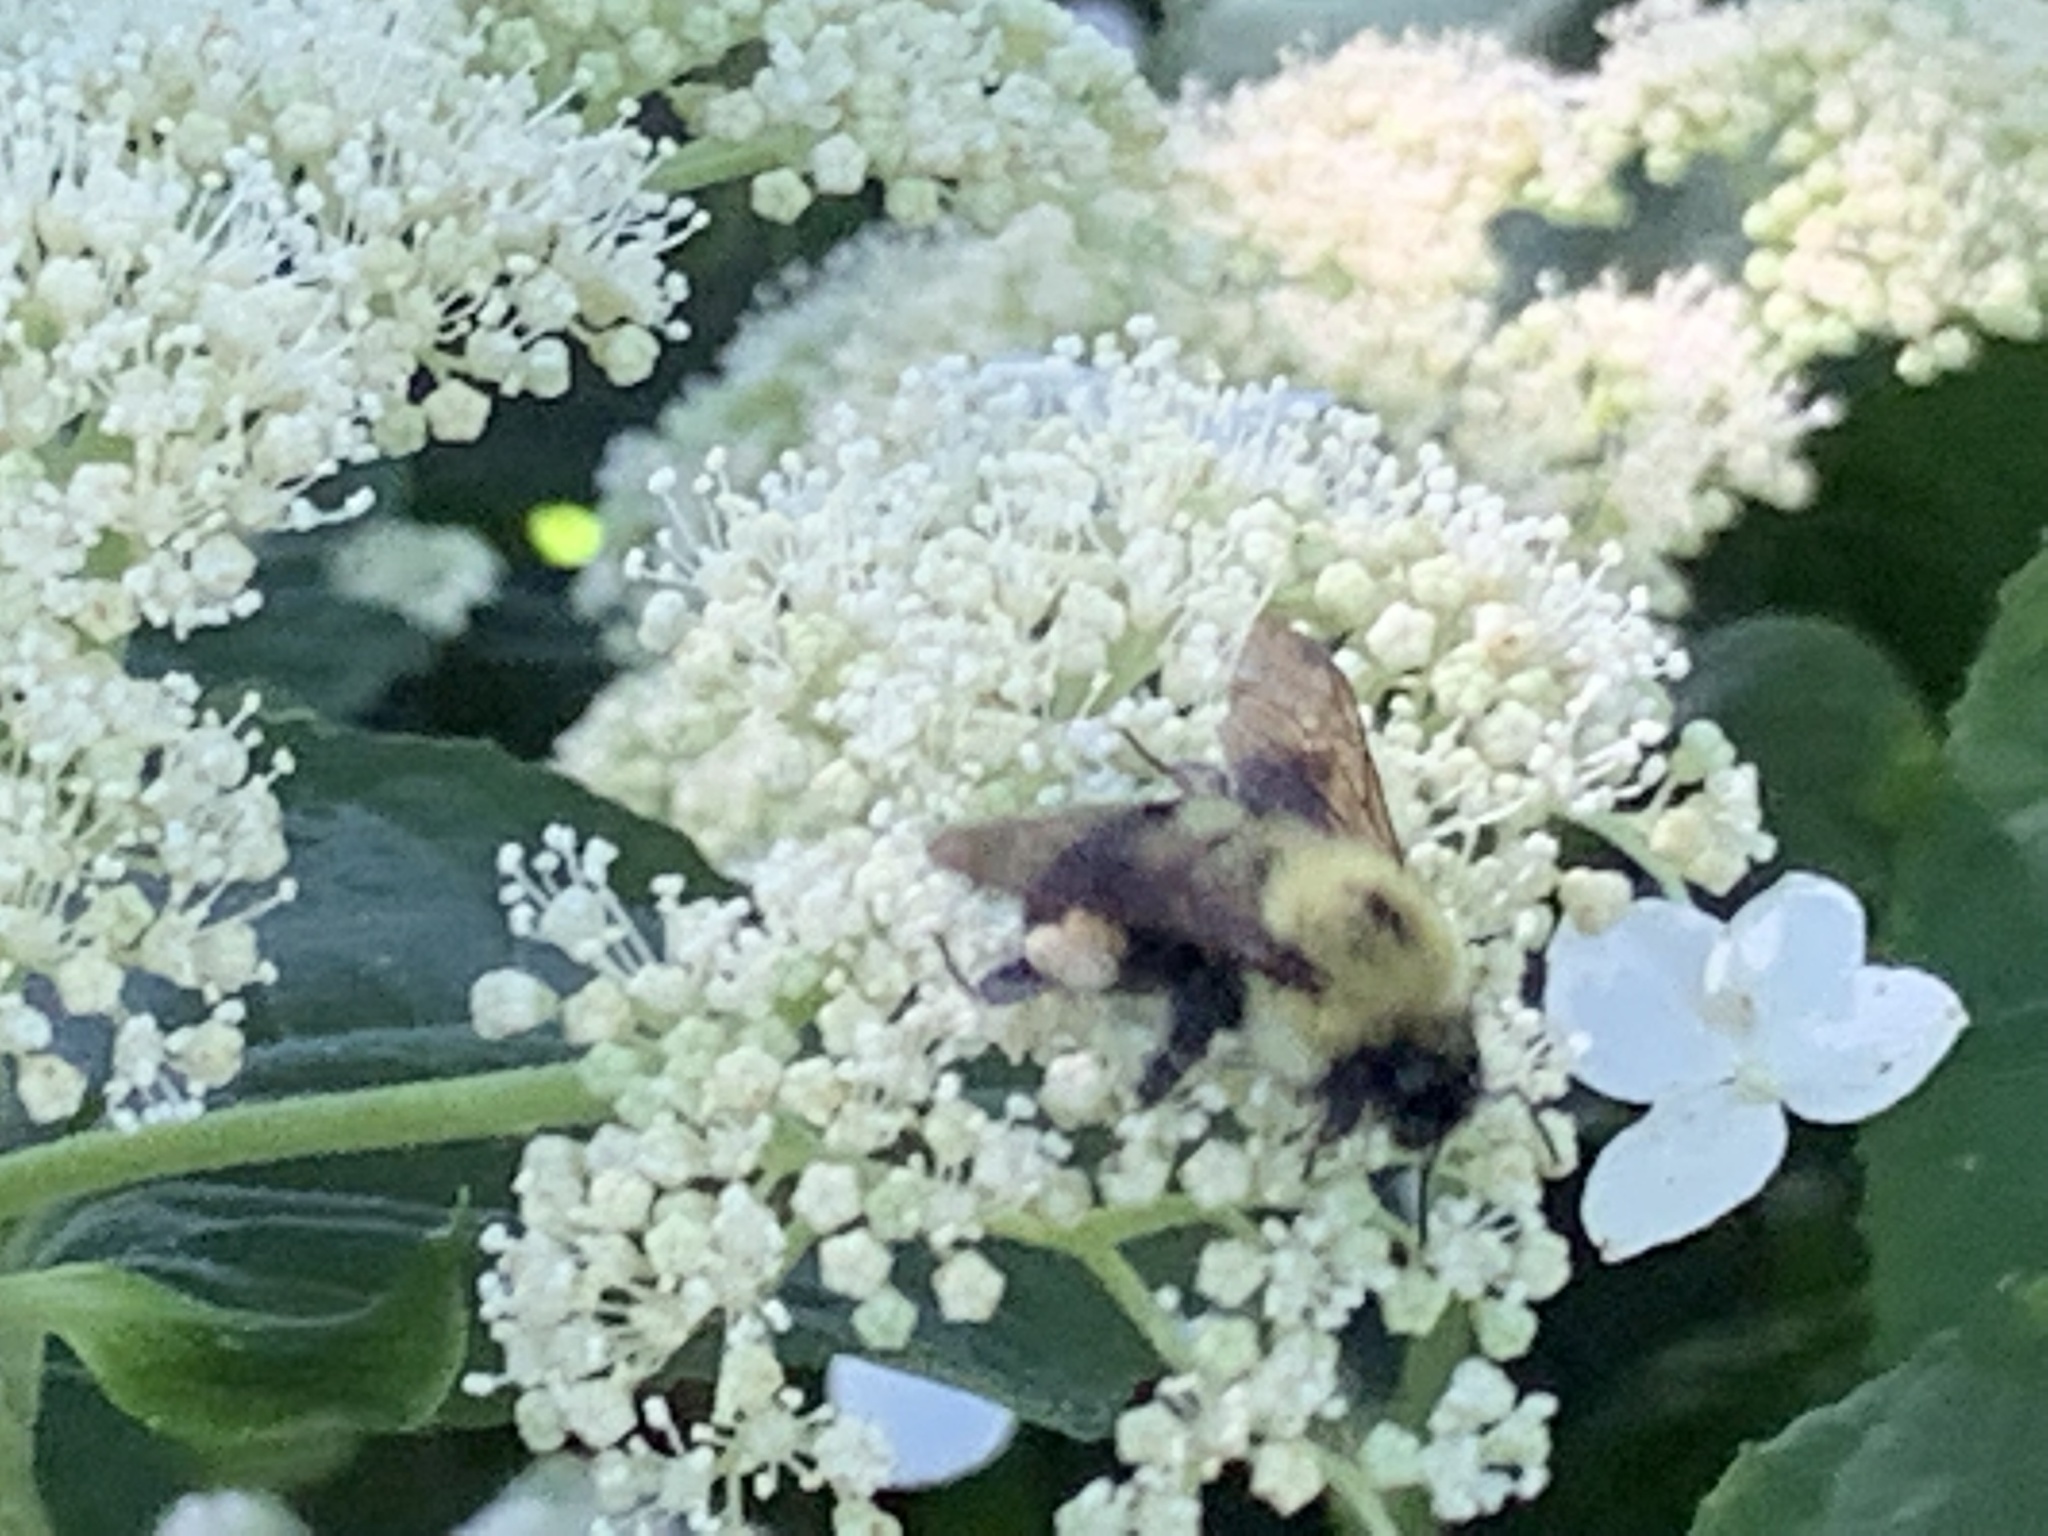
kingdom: Animalia
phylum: Arthropoda
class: Insecta
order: Hymenoptera
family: Apidae
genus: Bombus
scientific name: Bombus bimaculatus
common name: Two-spotted bumble bee
